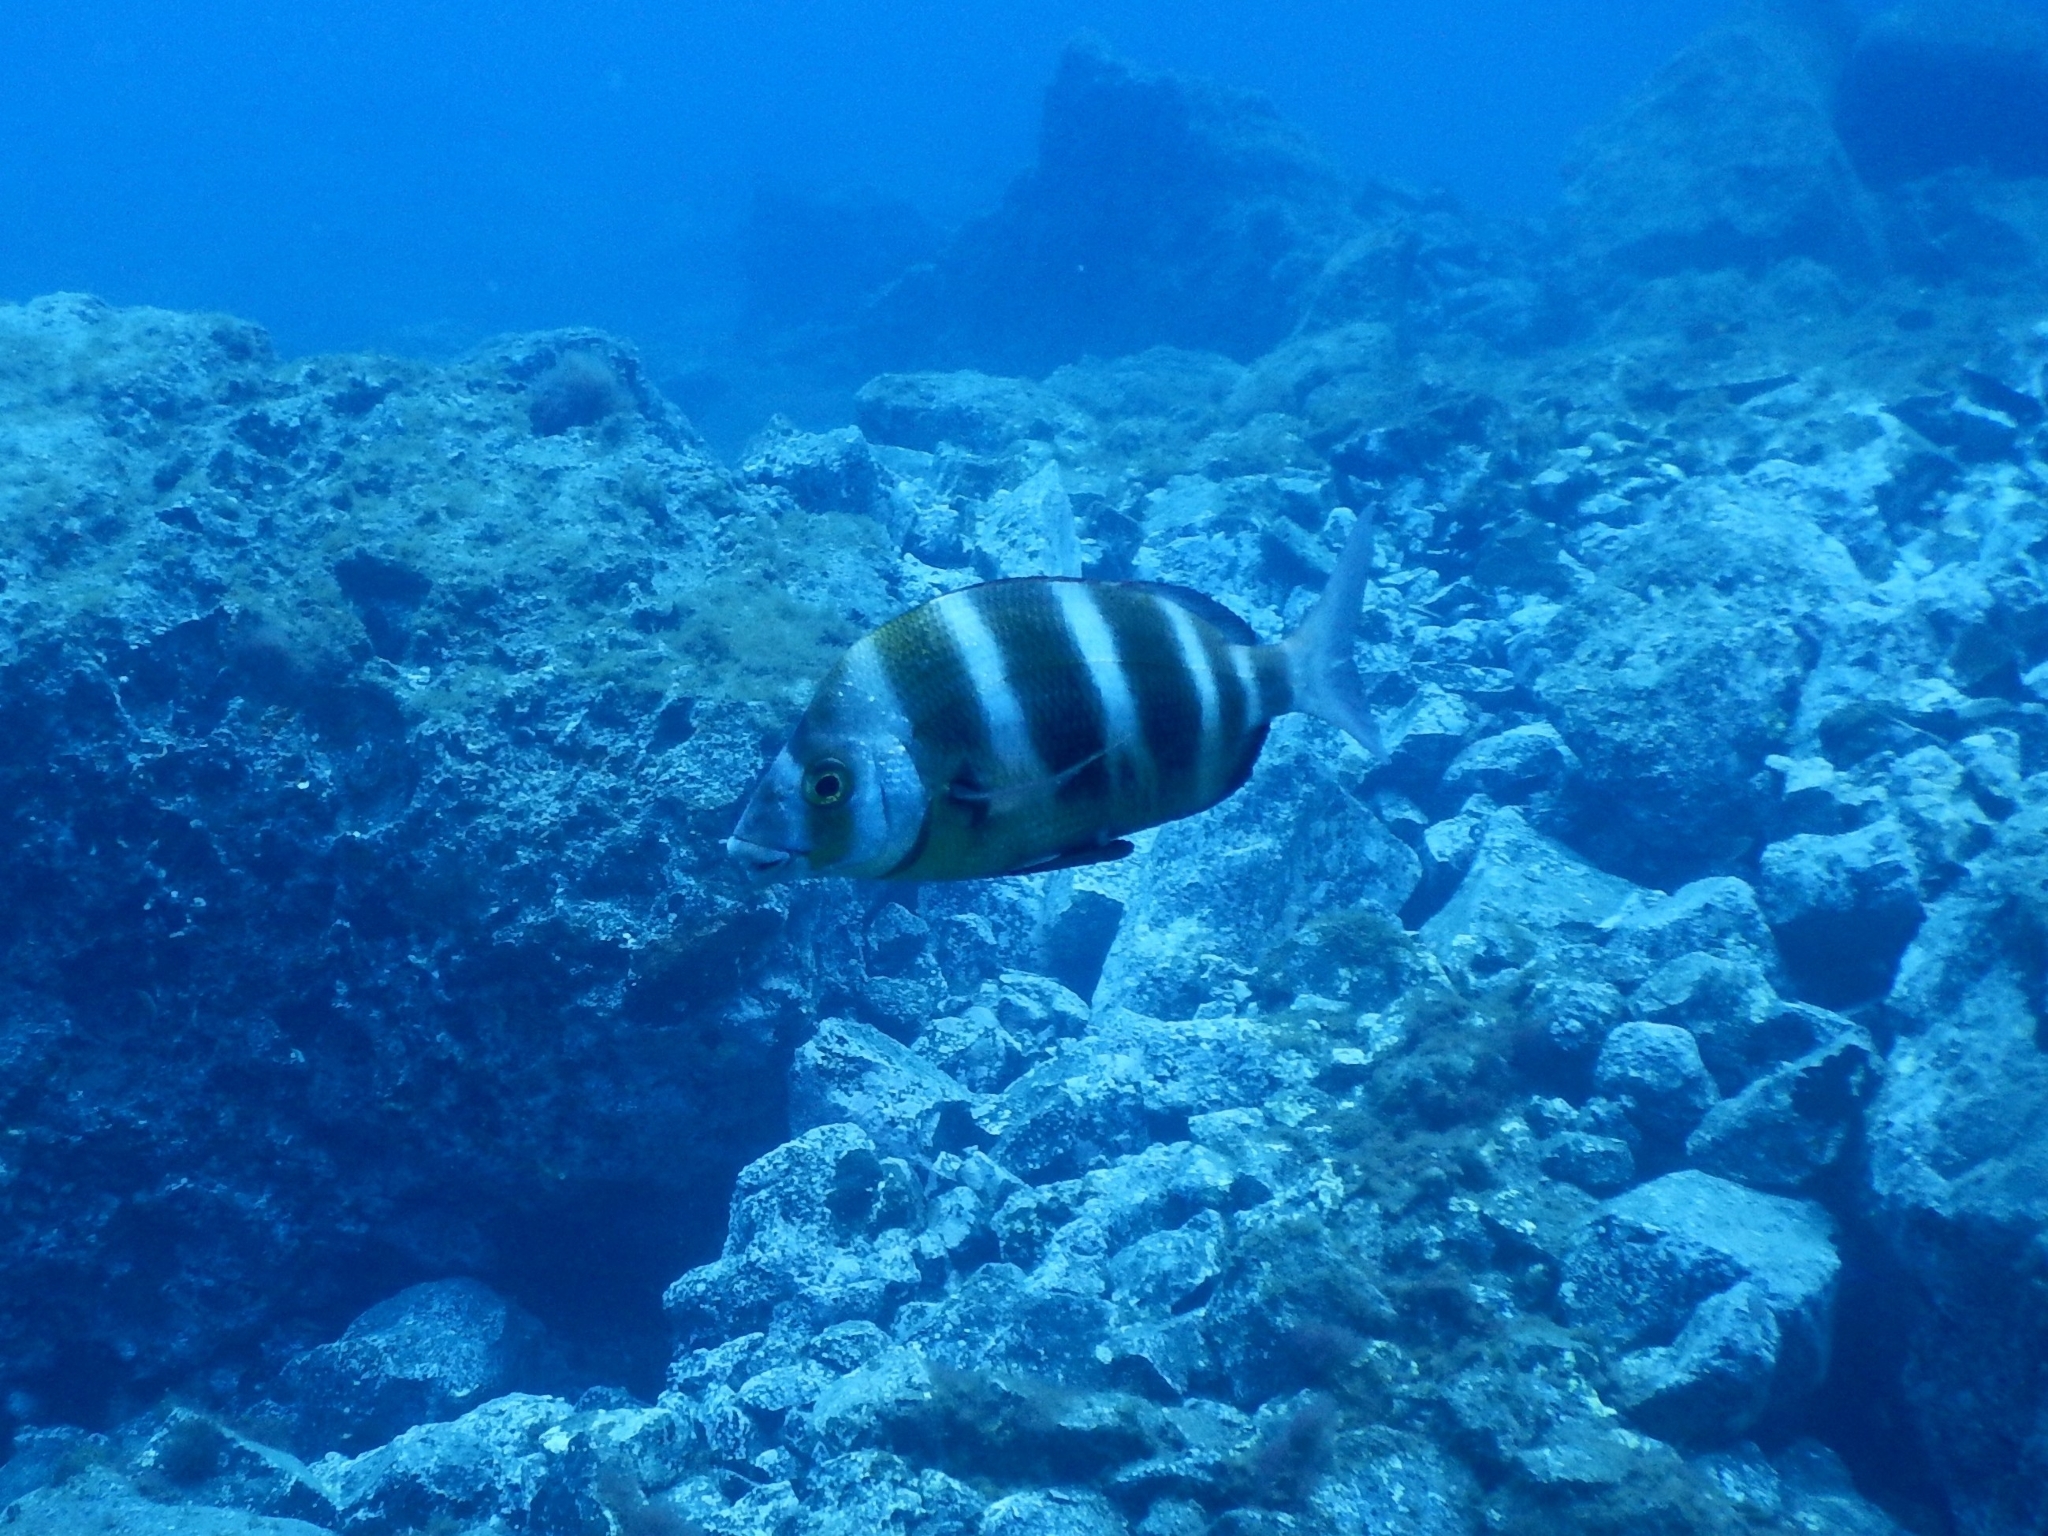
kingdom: Animalia
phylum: Chordata
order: Perciformes
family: Sparidae
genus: Diplodus
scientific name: Diplodus cervinus
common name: Oman porgy
